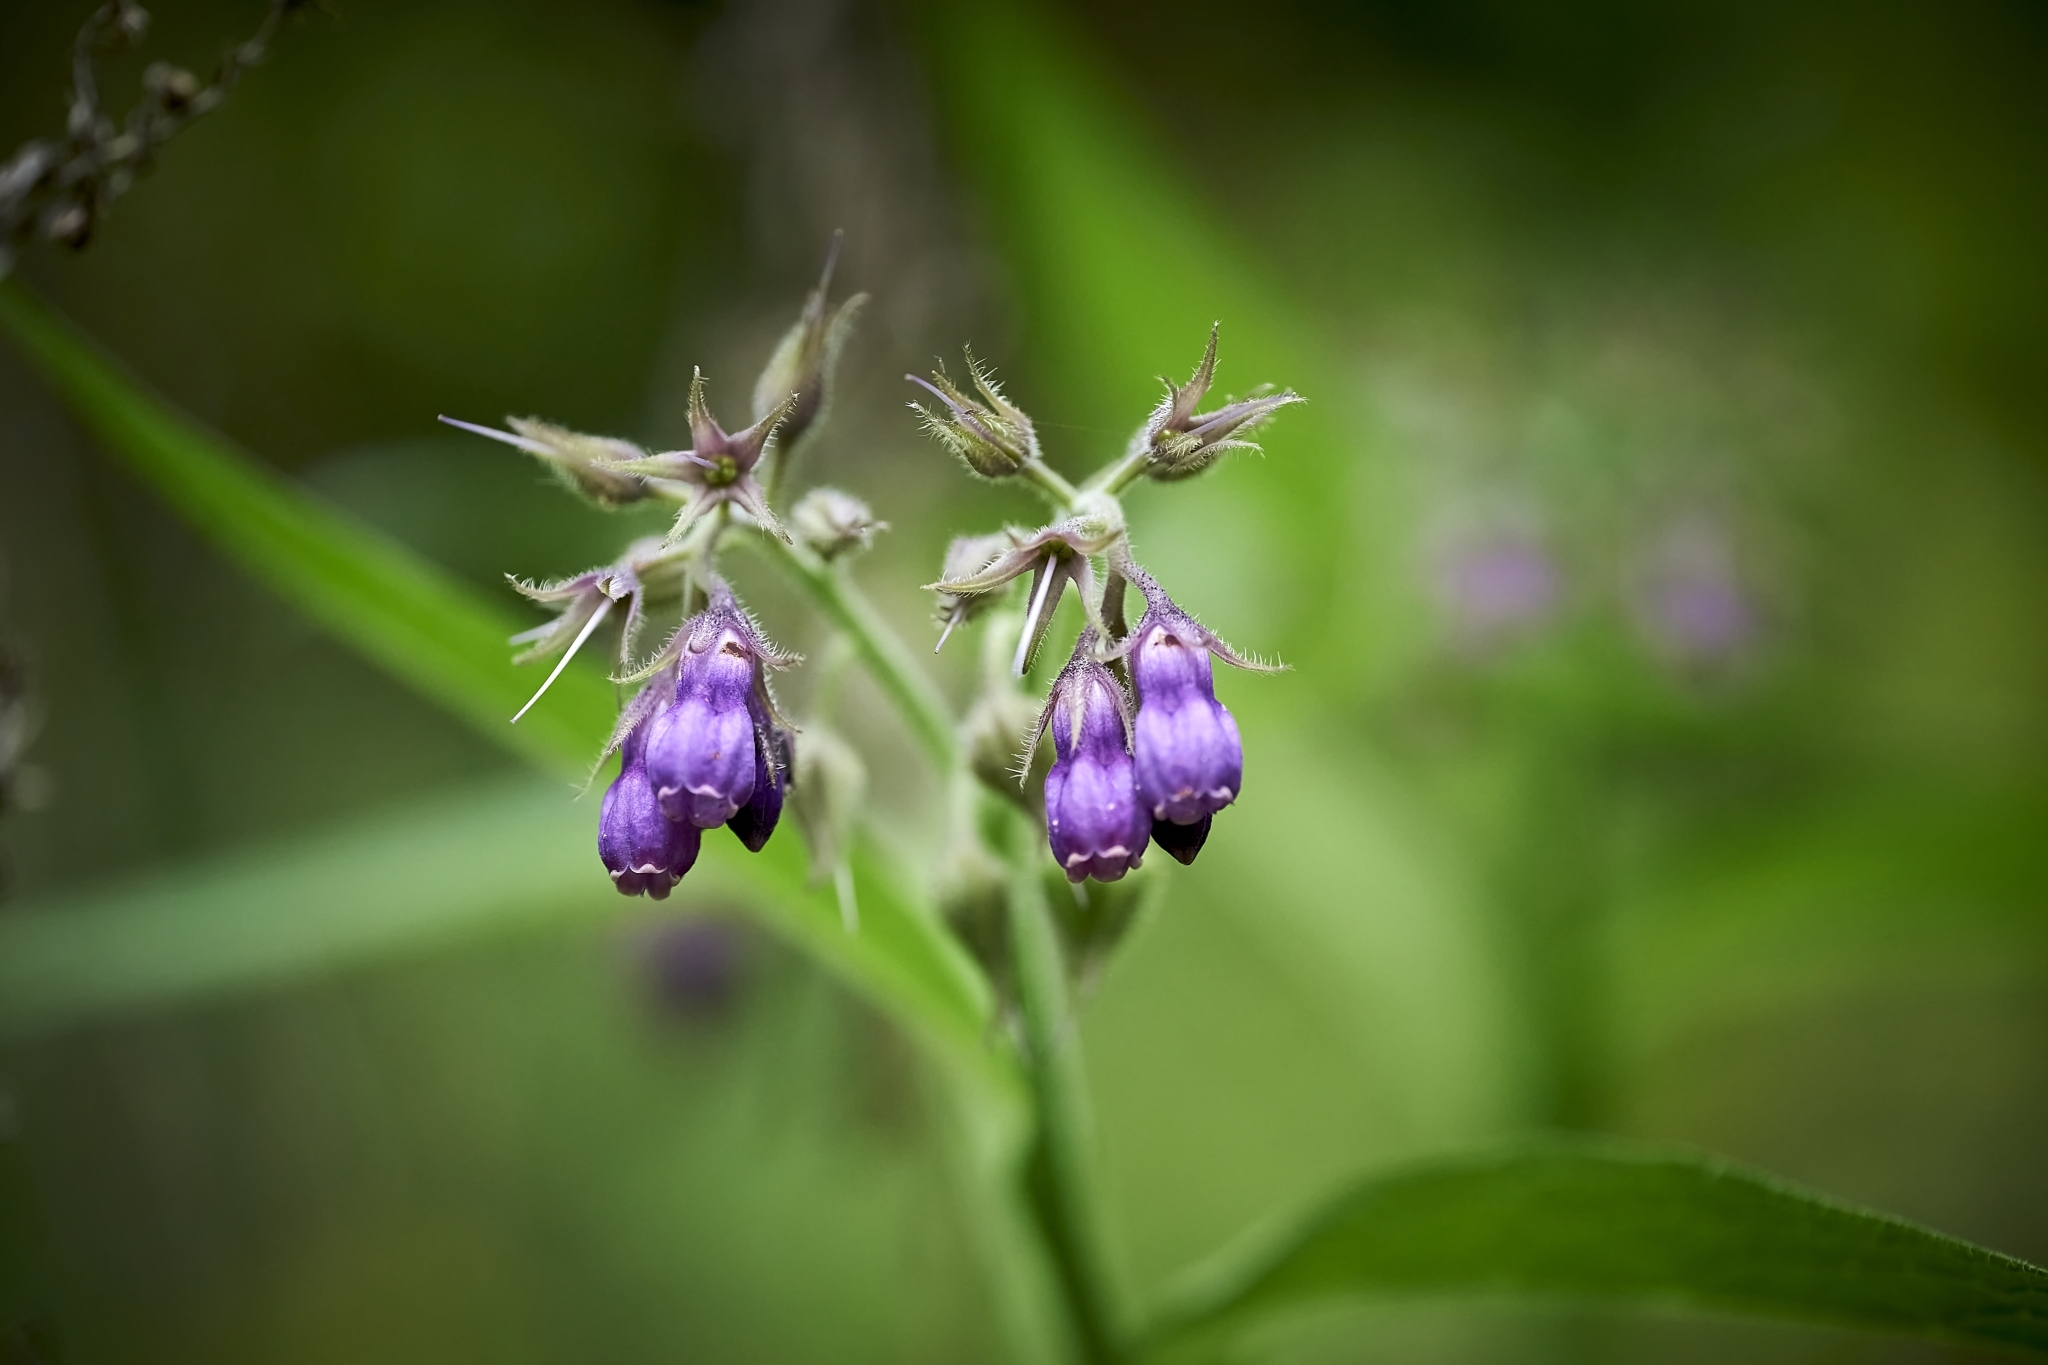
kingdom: Plantae
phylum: Tracheophyta
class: Magnoliopsida
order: Boraginales
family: Boraginaceae
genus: Symphytum
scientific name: Symphytum officinale
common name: Common comfrey
